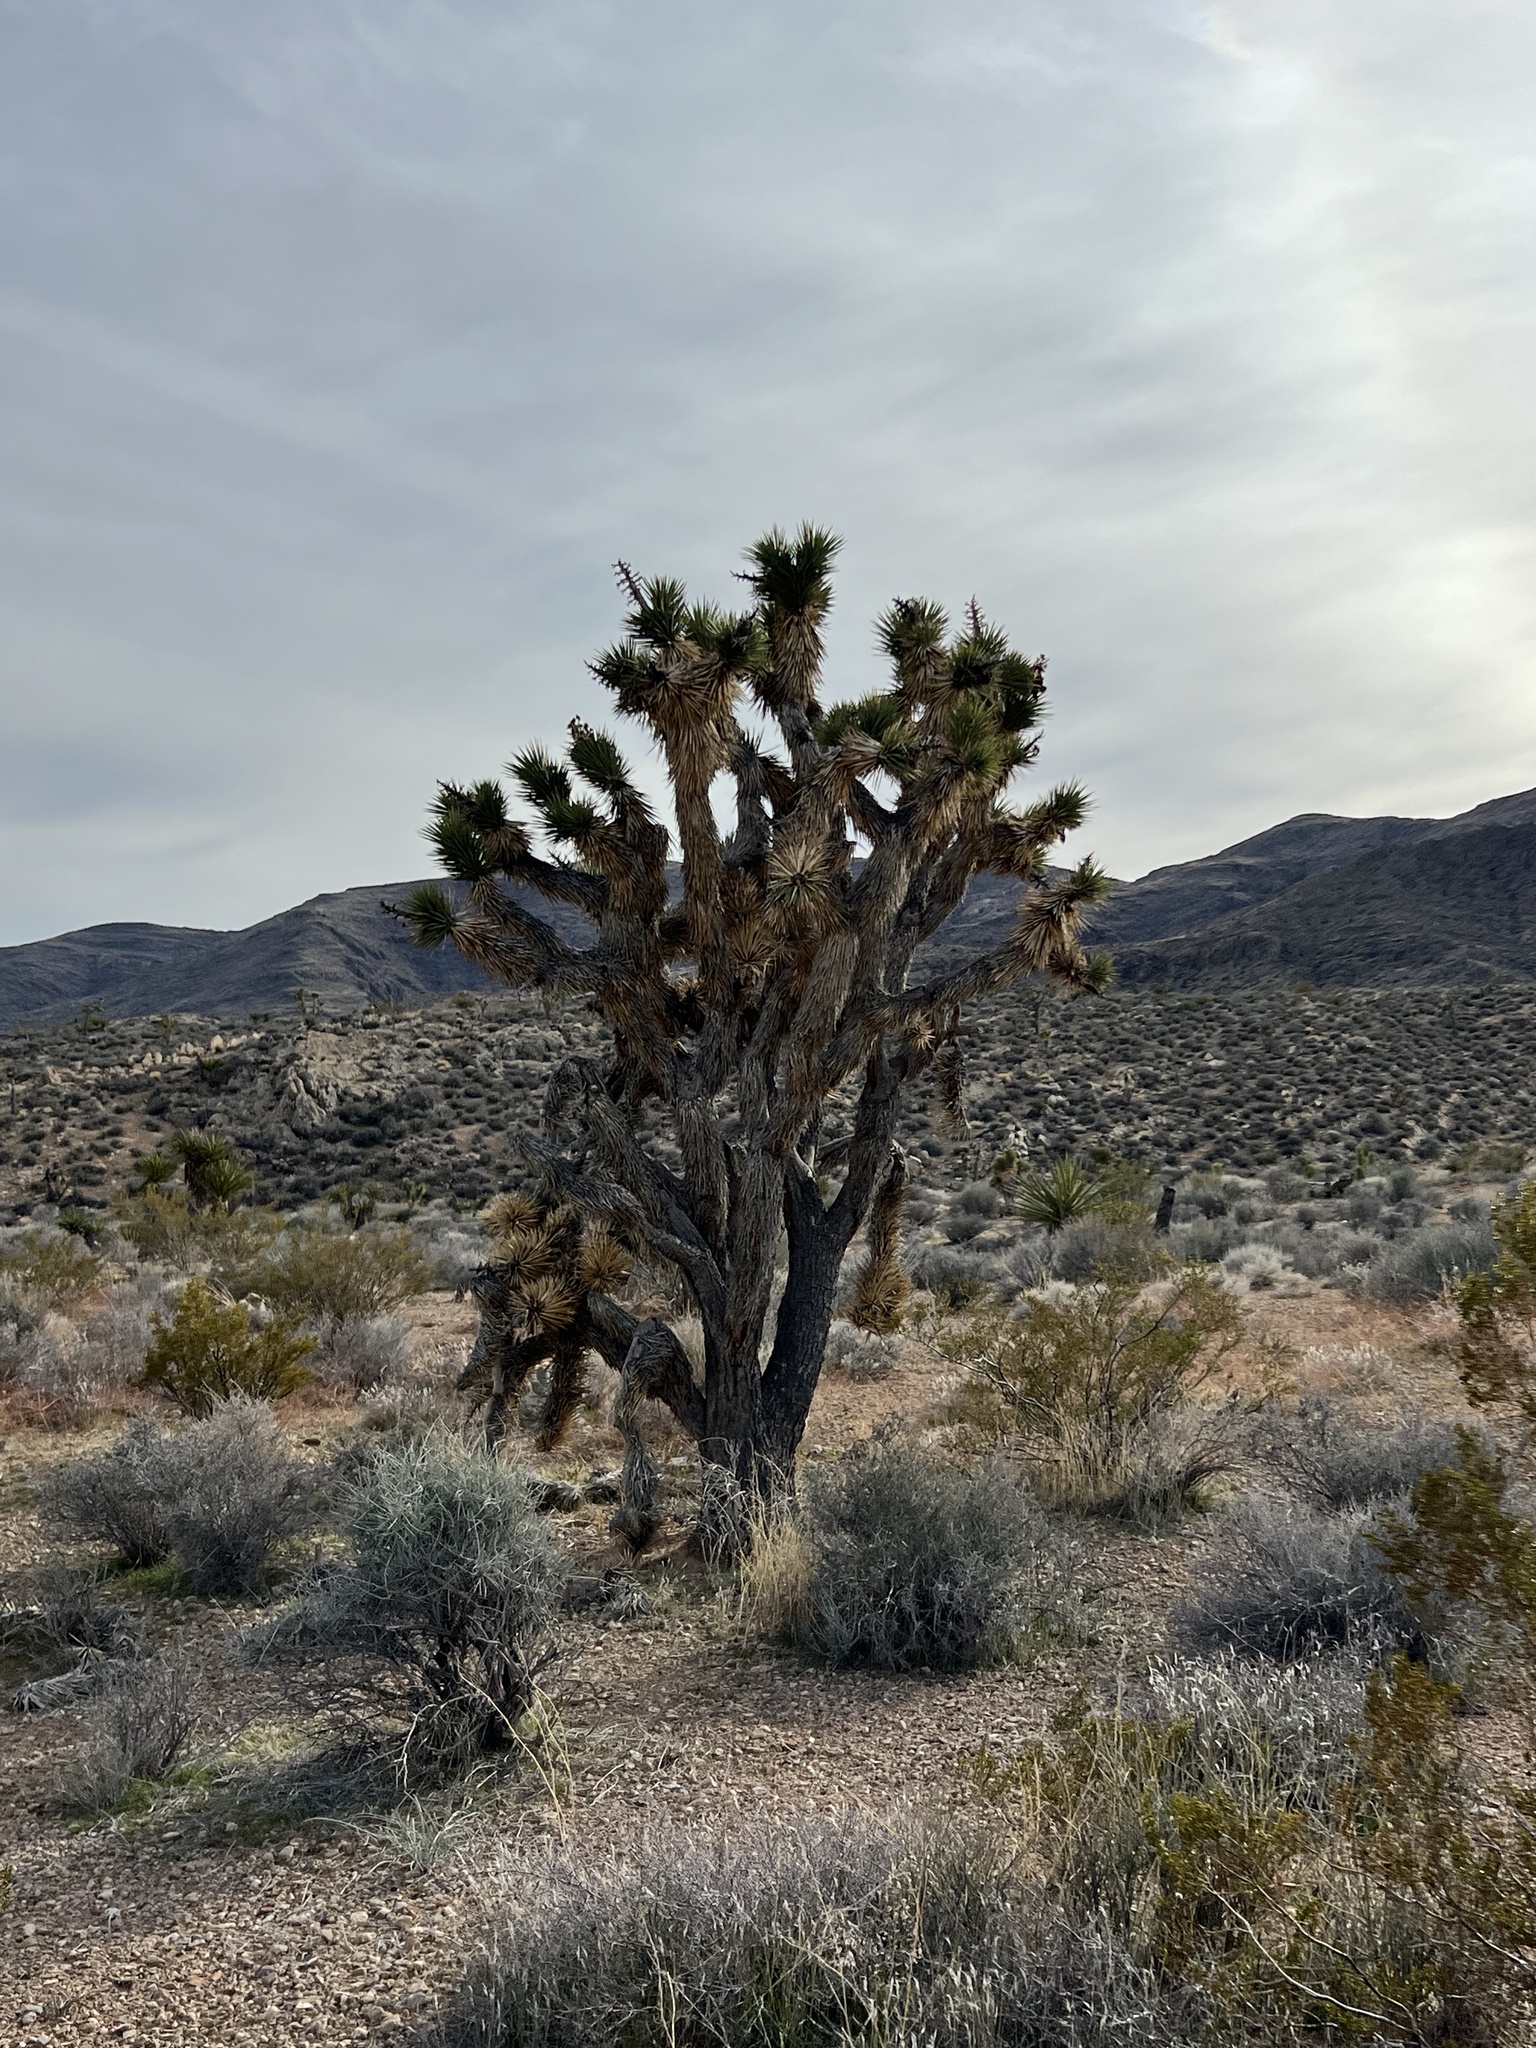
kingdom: Plantae
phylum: Tracheophyta
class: Liliopsida
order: Asparagales
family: Asparagaceae
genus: Yucca
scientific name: Yucca brevifolia
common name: Joshua tree
